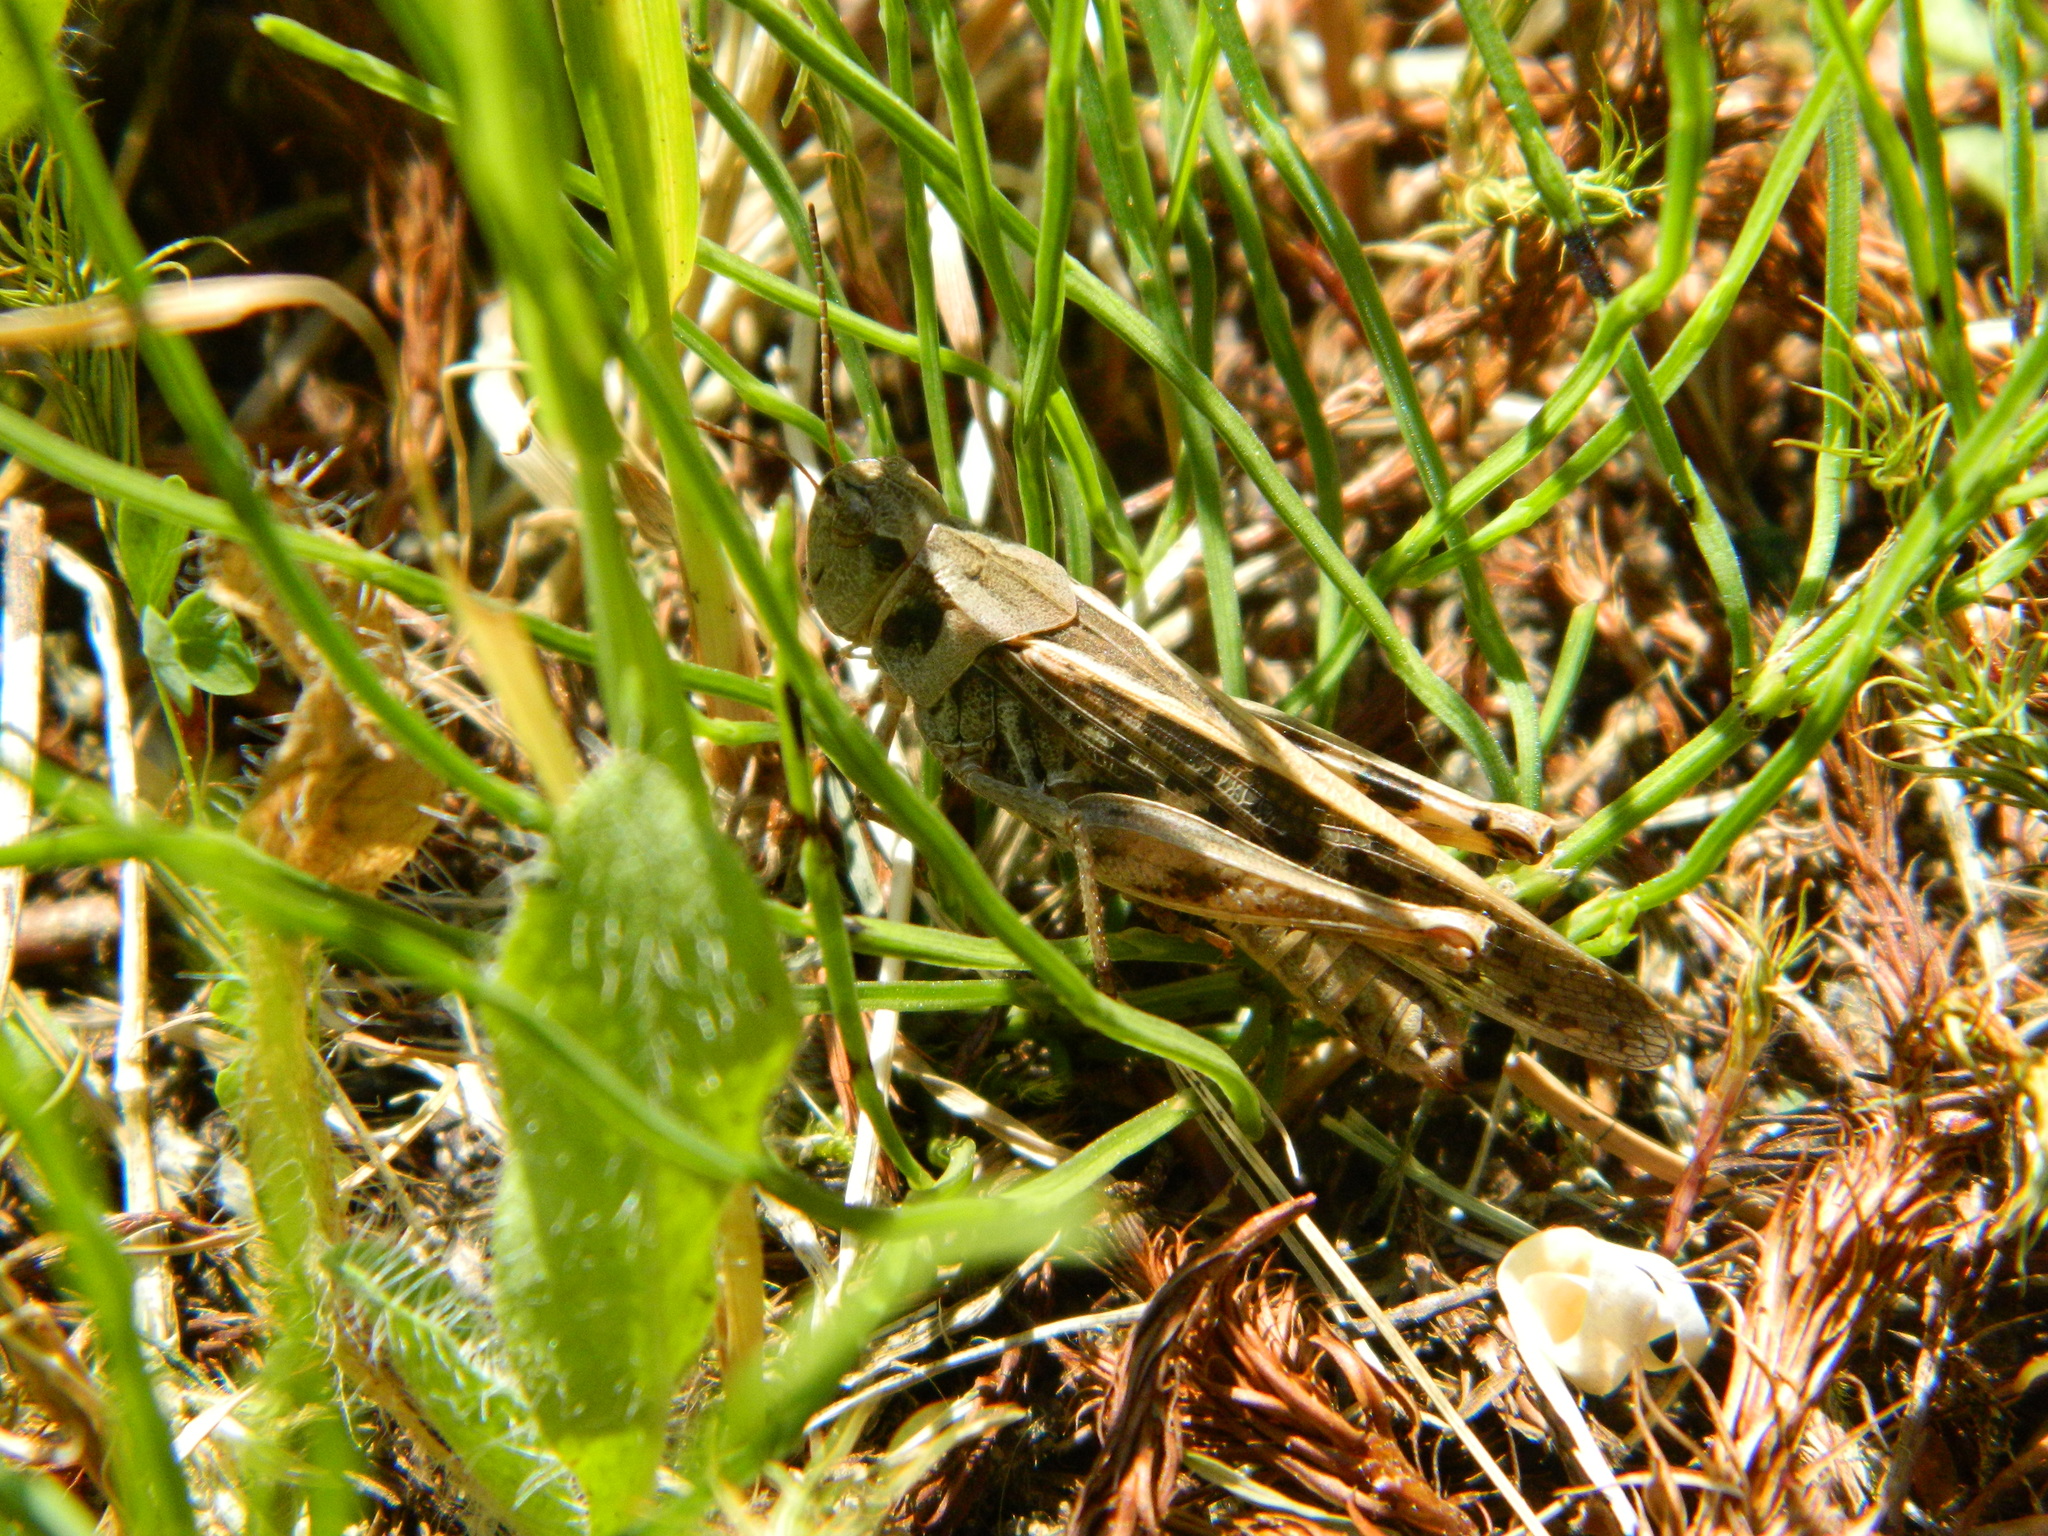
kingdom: Animalia
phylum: Arthropoda
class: Insecta
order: Orthoptera
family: Acrididae
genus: Camnula
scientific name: Camnula pellucida
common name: Clear-winged grasshopper
